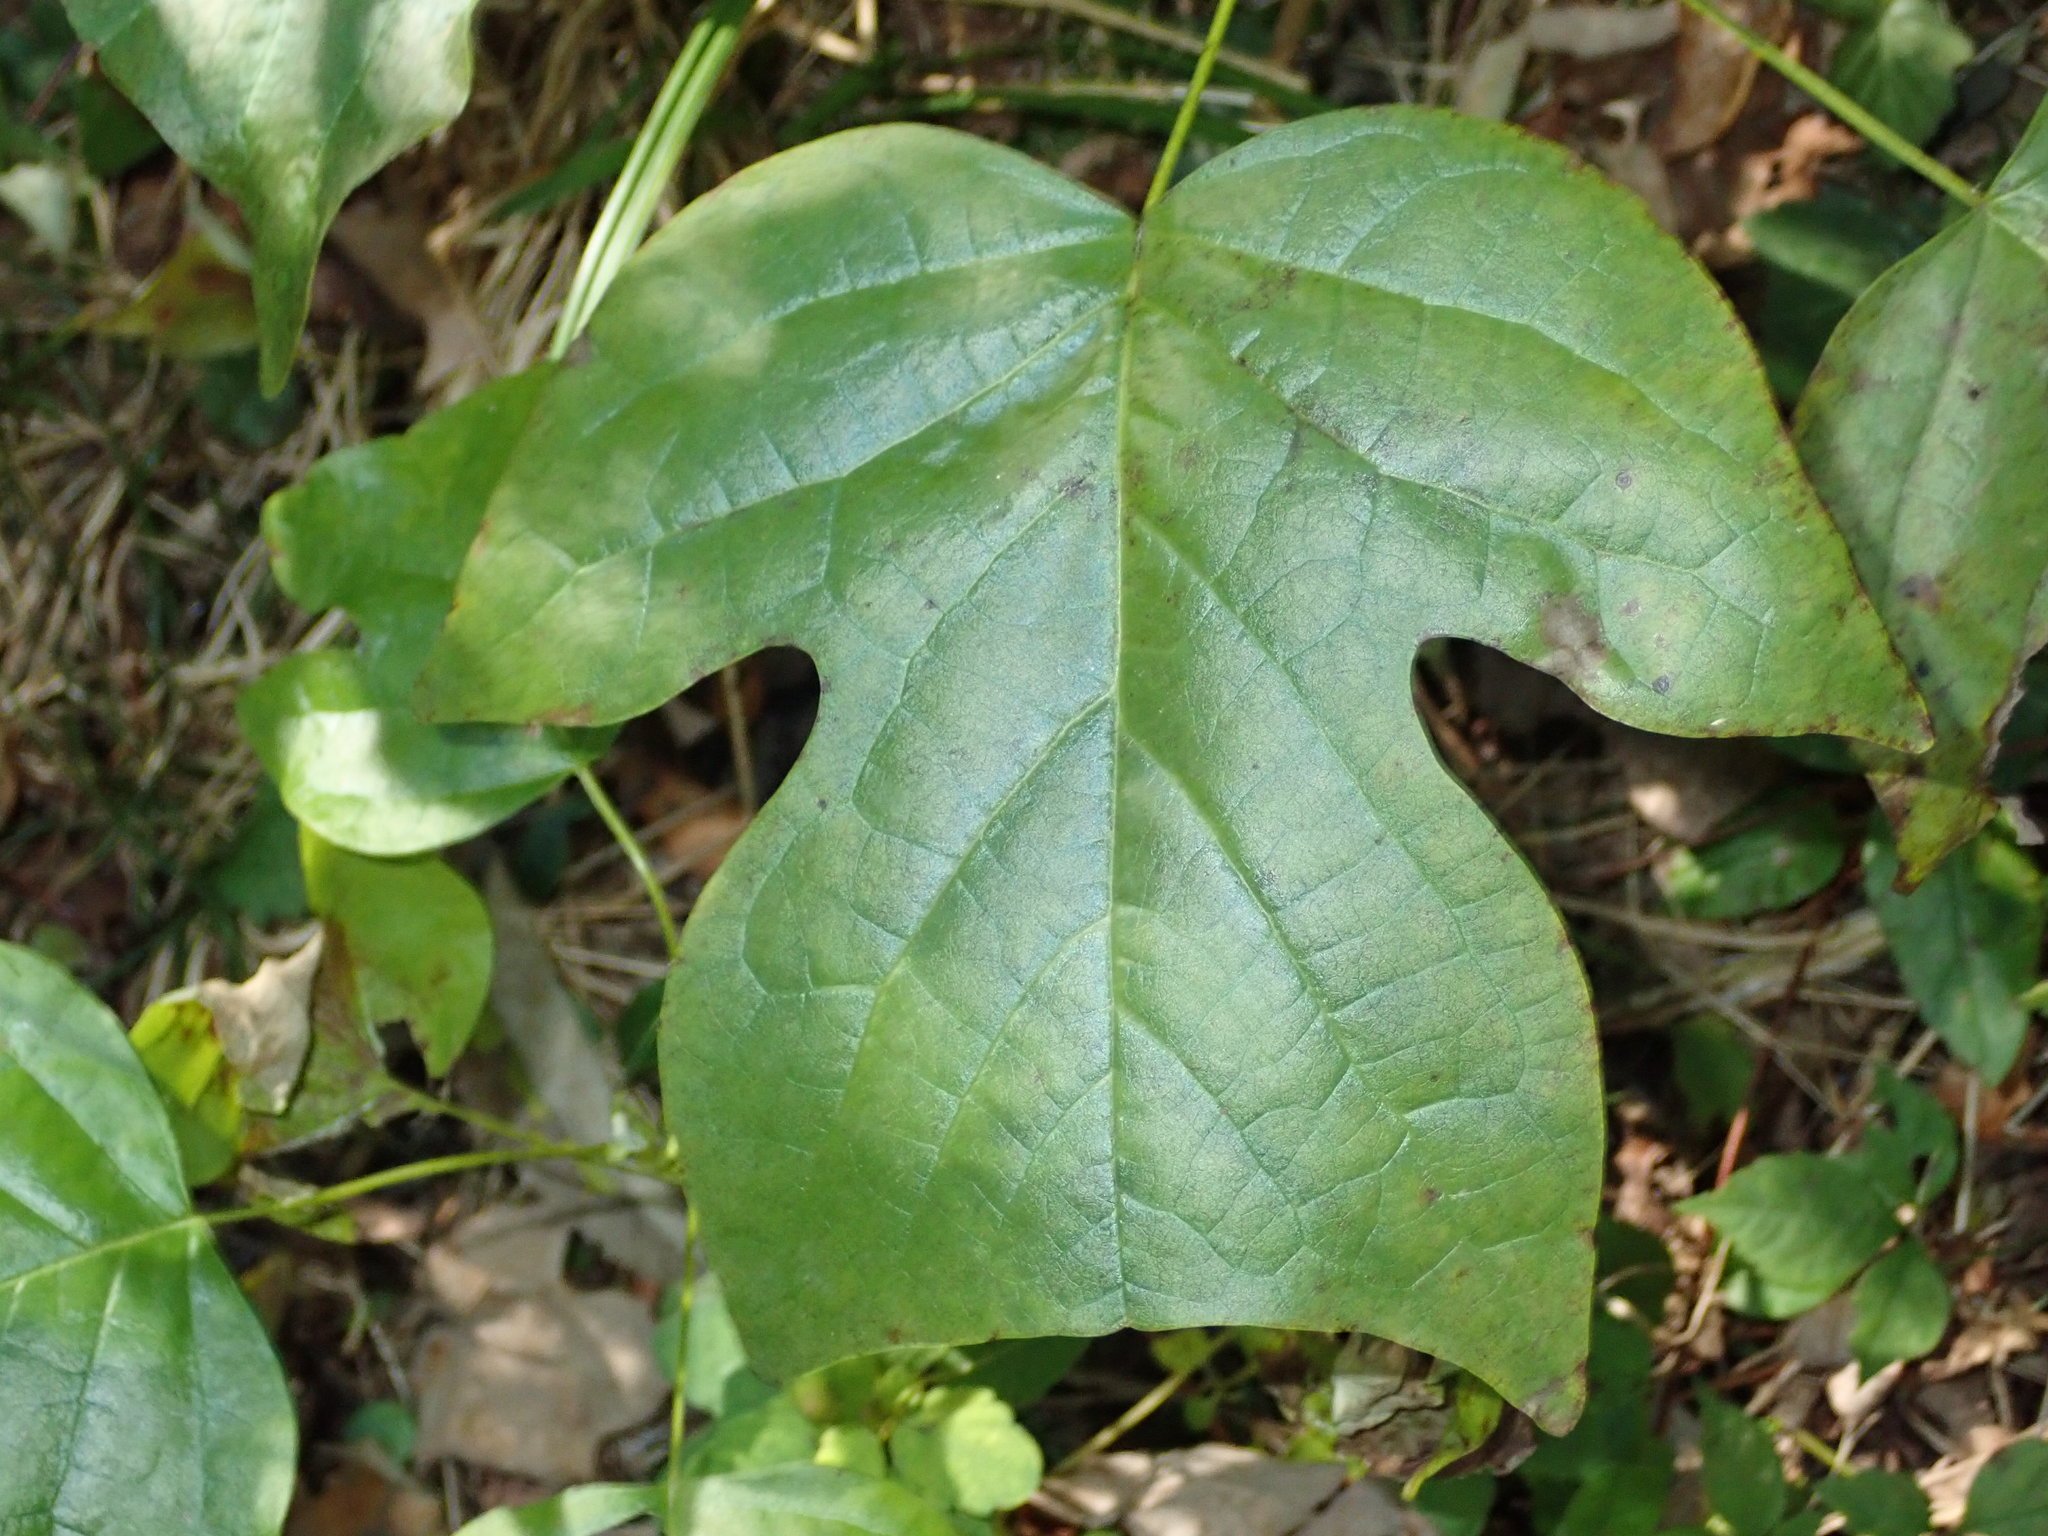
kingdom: Plantae
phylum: Tracheophyta
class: Magnoliopsida
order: Magnoliales
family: Magnoliaceae
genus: Liriodendron
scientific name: Liriodendron tulipifera
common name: Tulip tree
